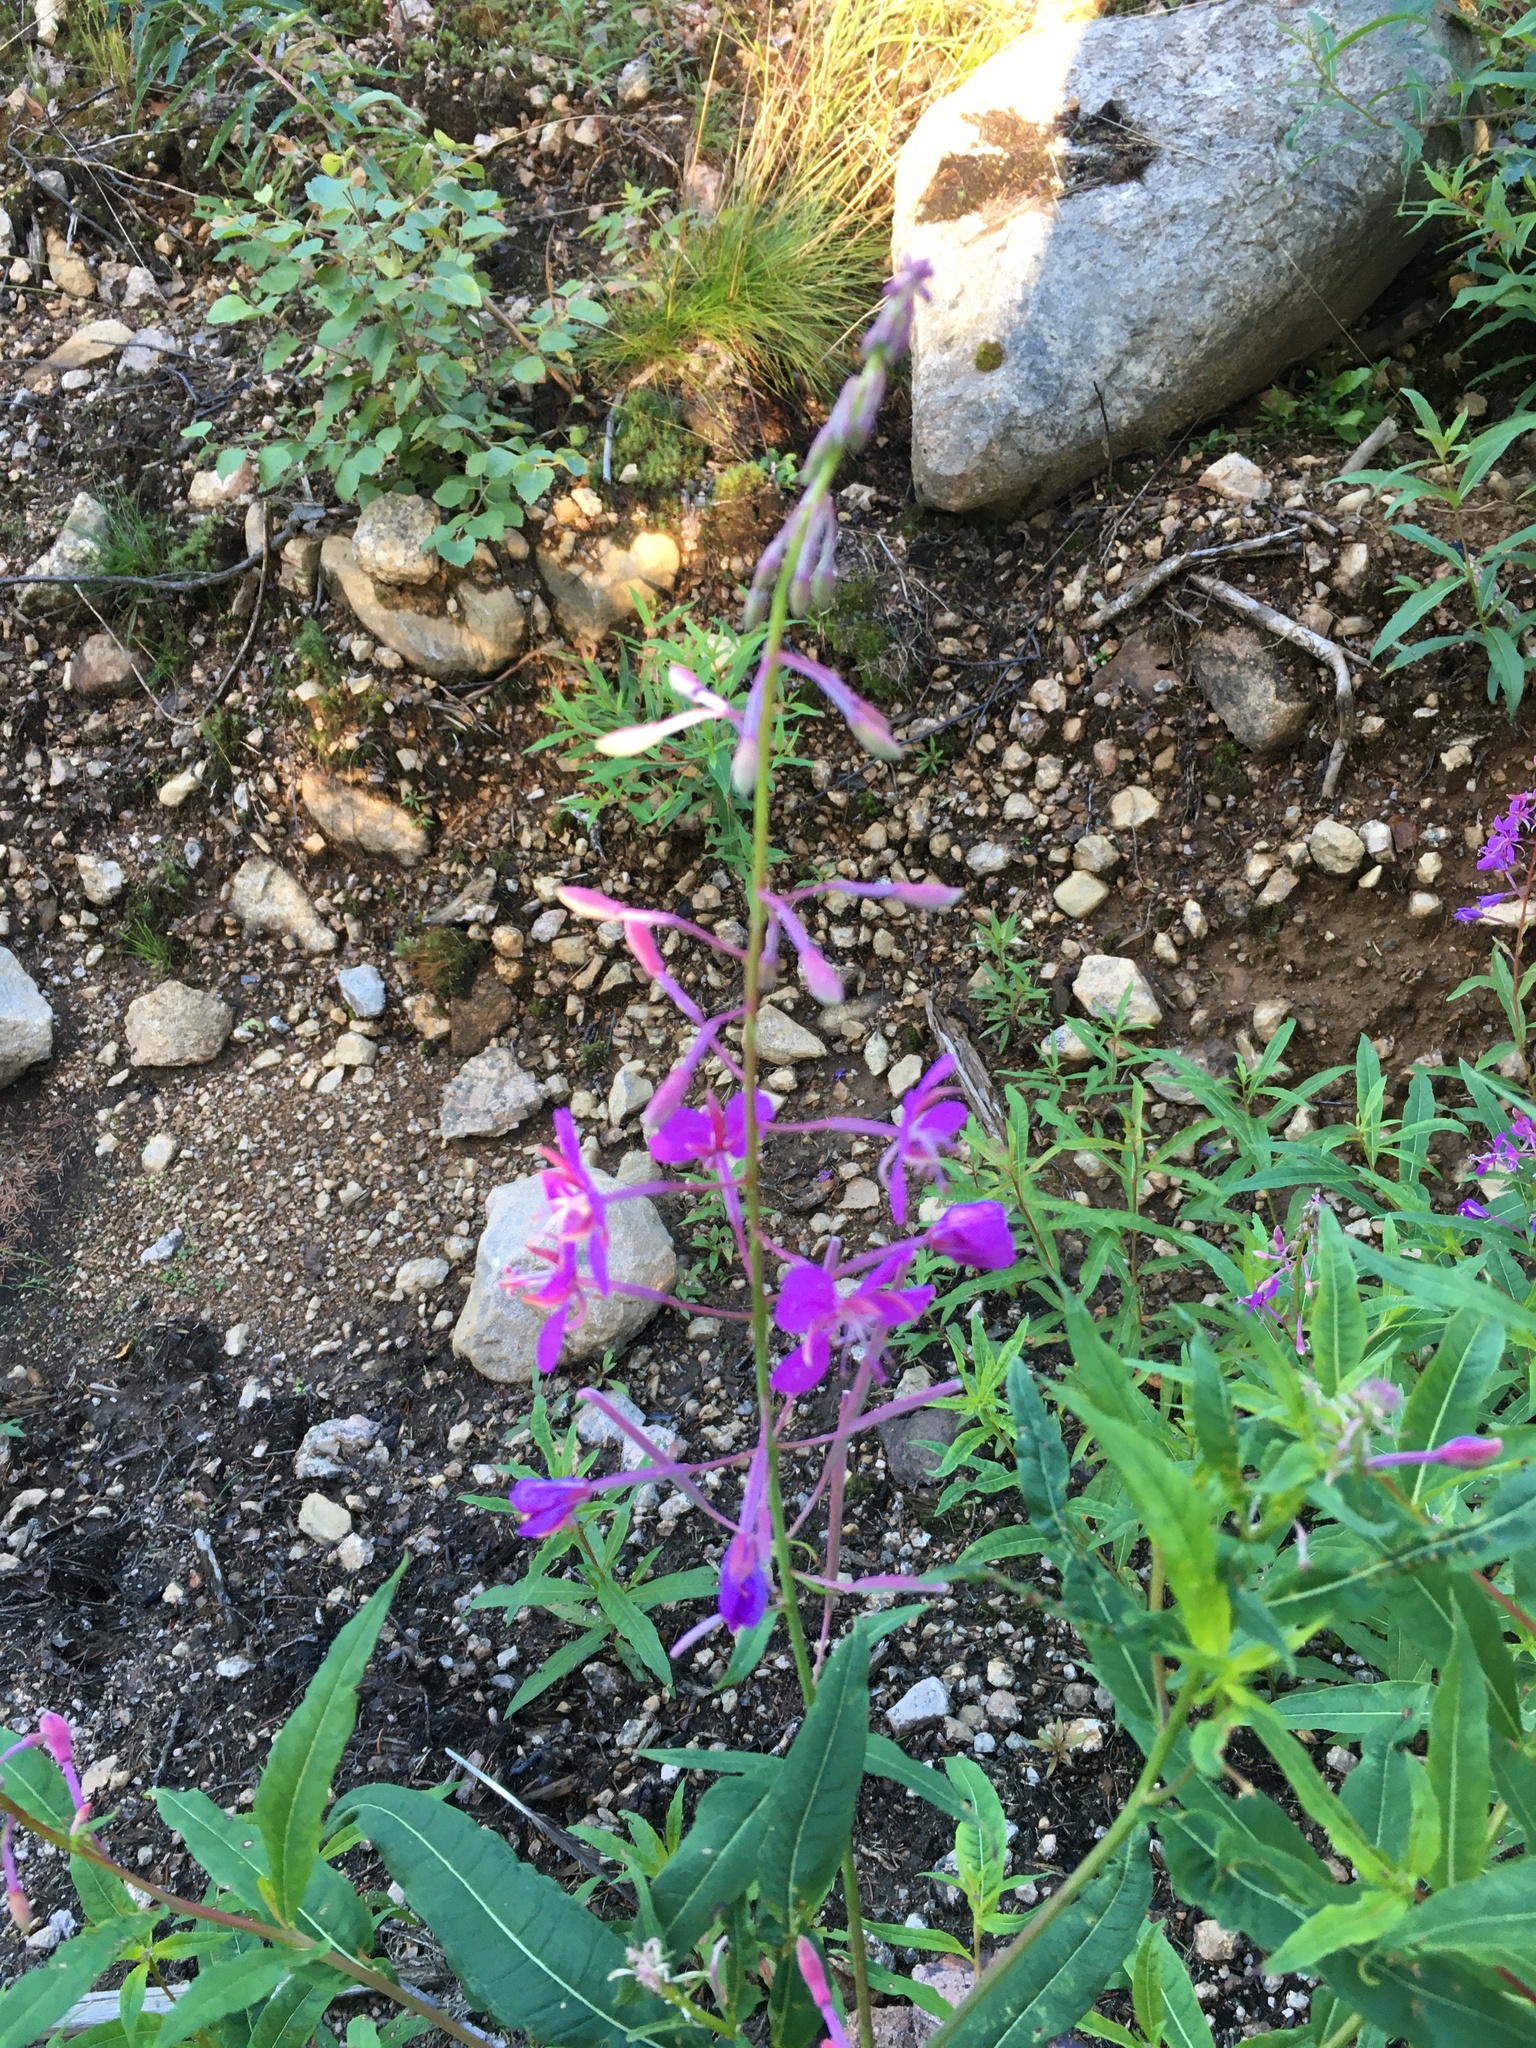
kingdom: Plantae
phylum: Tracheophyta
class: Magnoliopsida
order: Myrtales
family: Onagraceae
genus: Chamaenerion
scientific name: Chamaenerion angustifolium
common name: Fireweed
